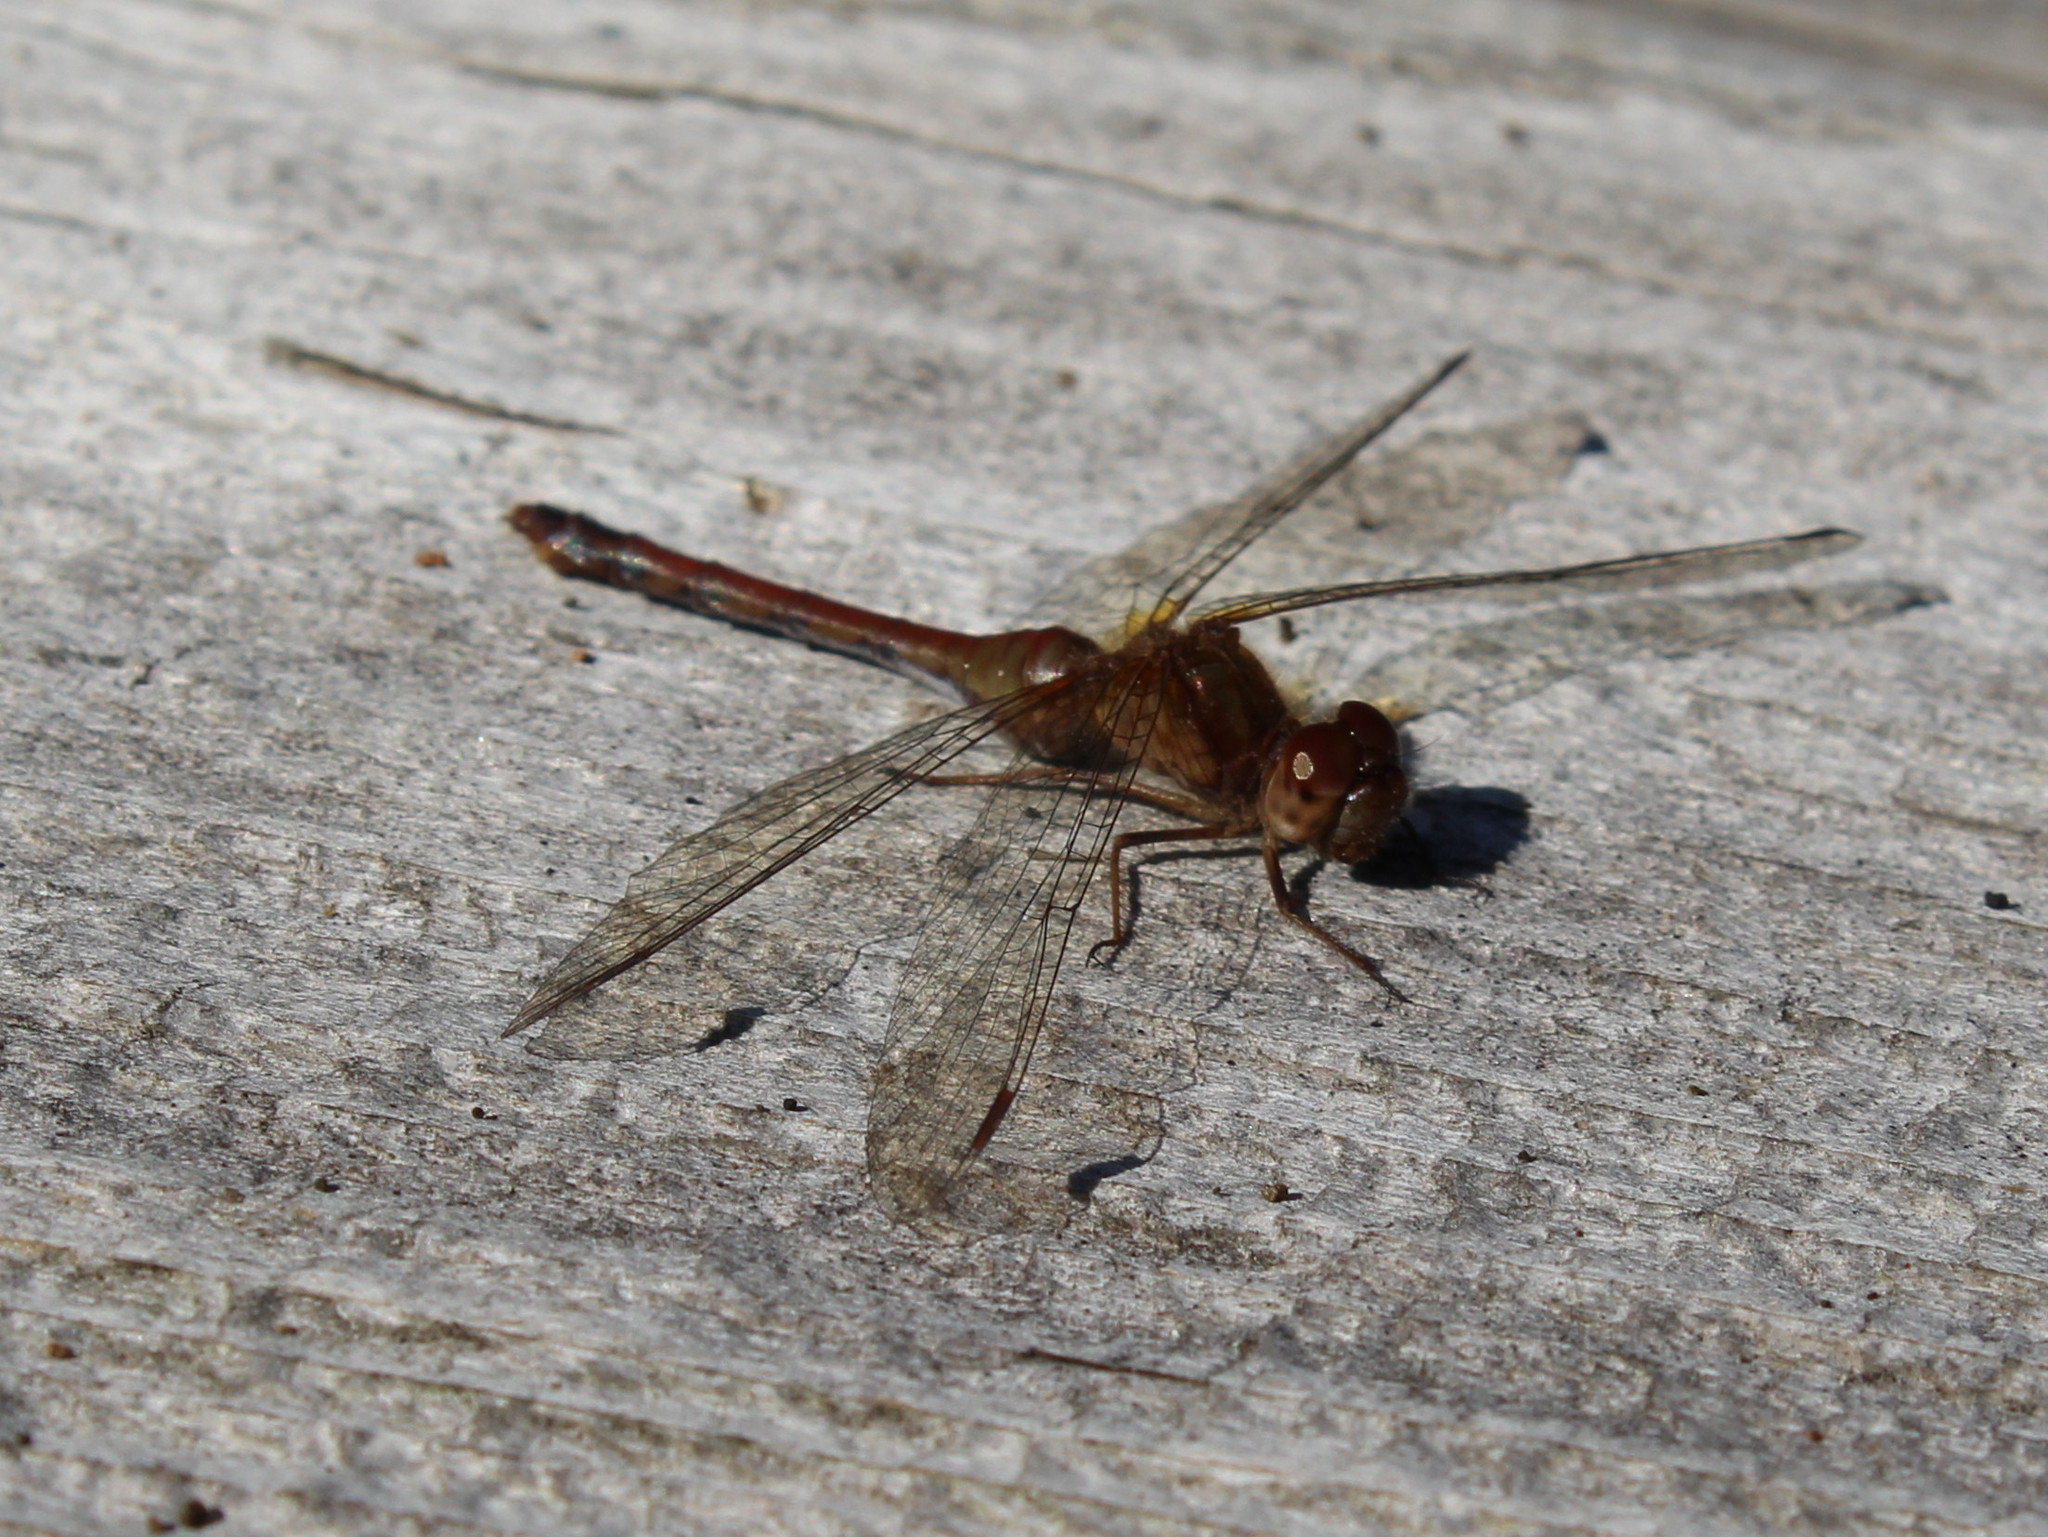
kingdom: Animalia
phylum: Arthropoda
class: Insecta
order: Odonata
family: Libellulidae
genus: Sympetrum
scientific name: Sympetrum vicinum
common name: Autumn meadowhawk
